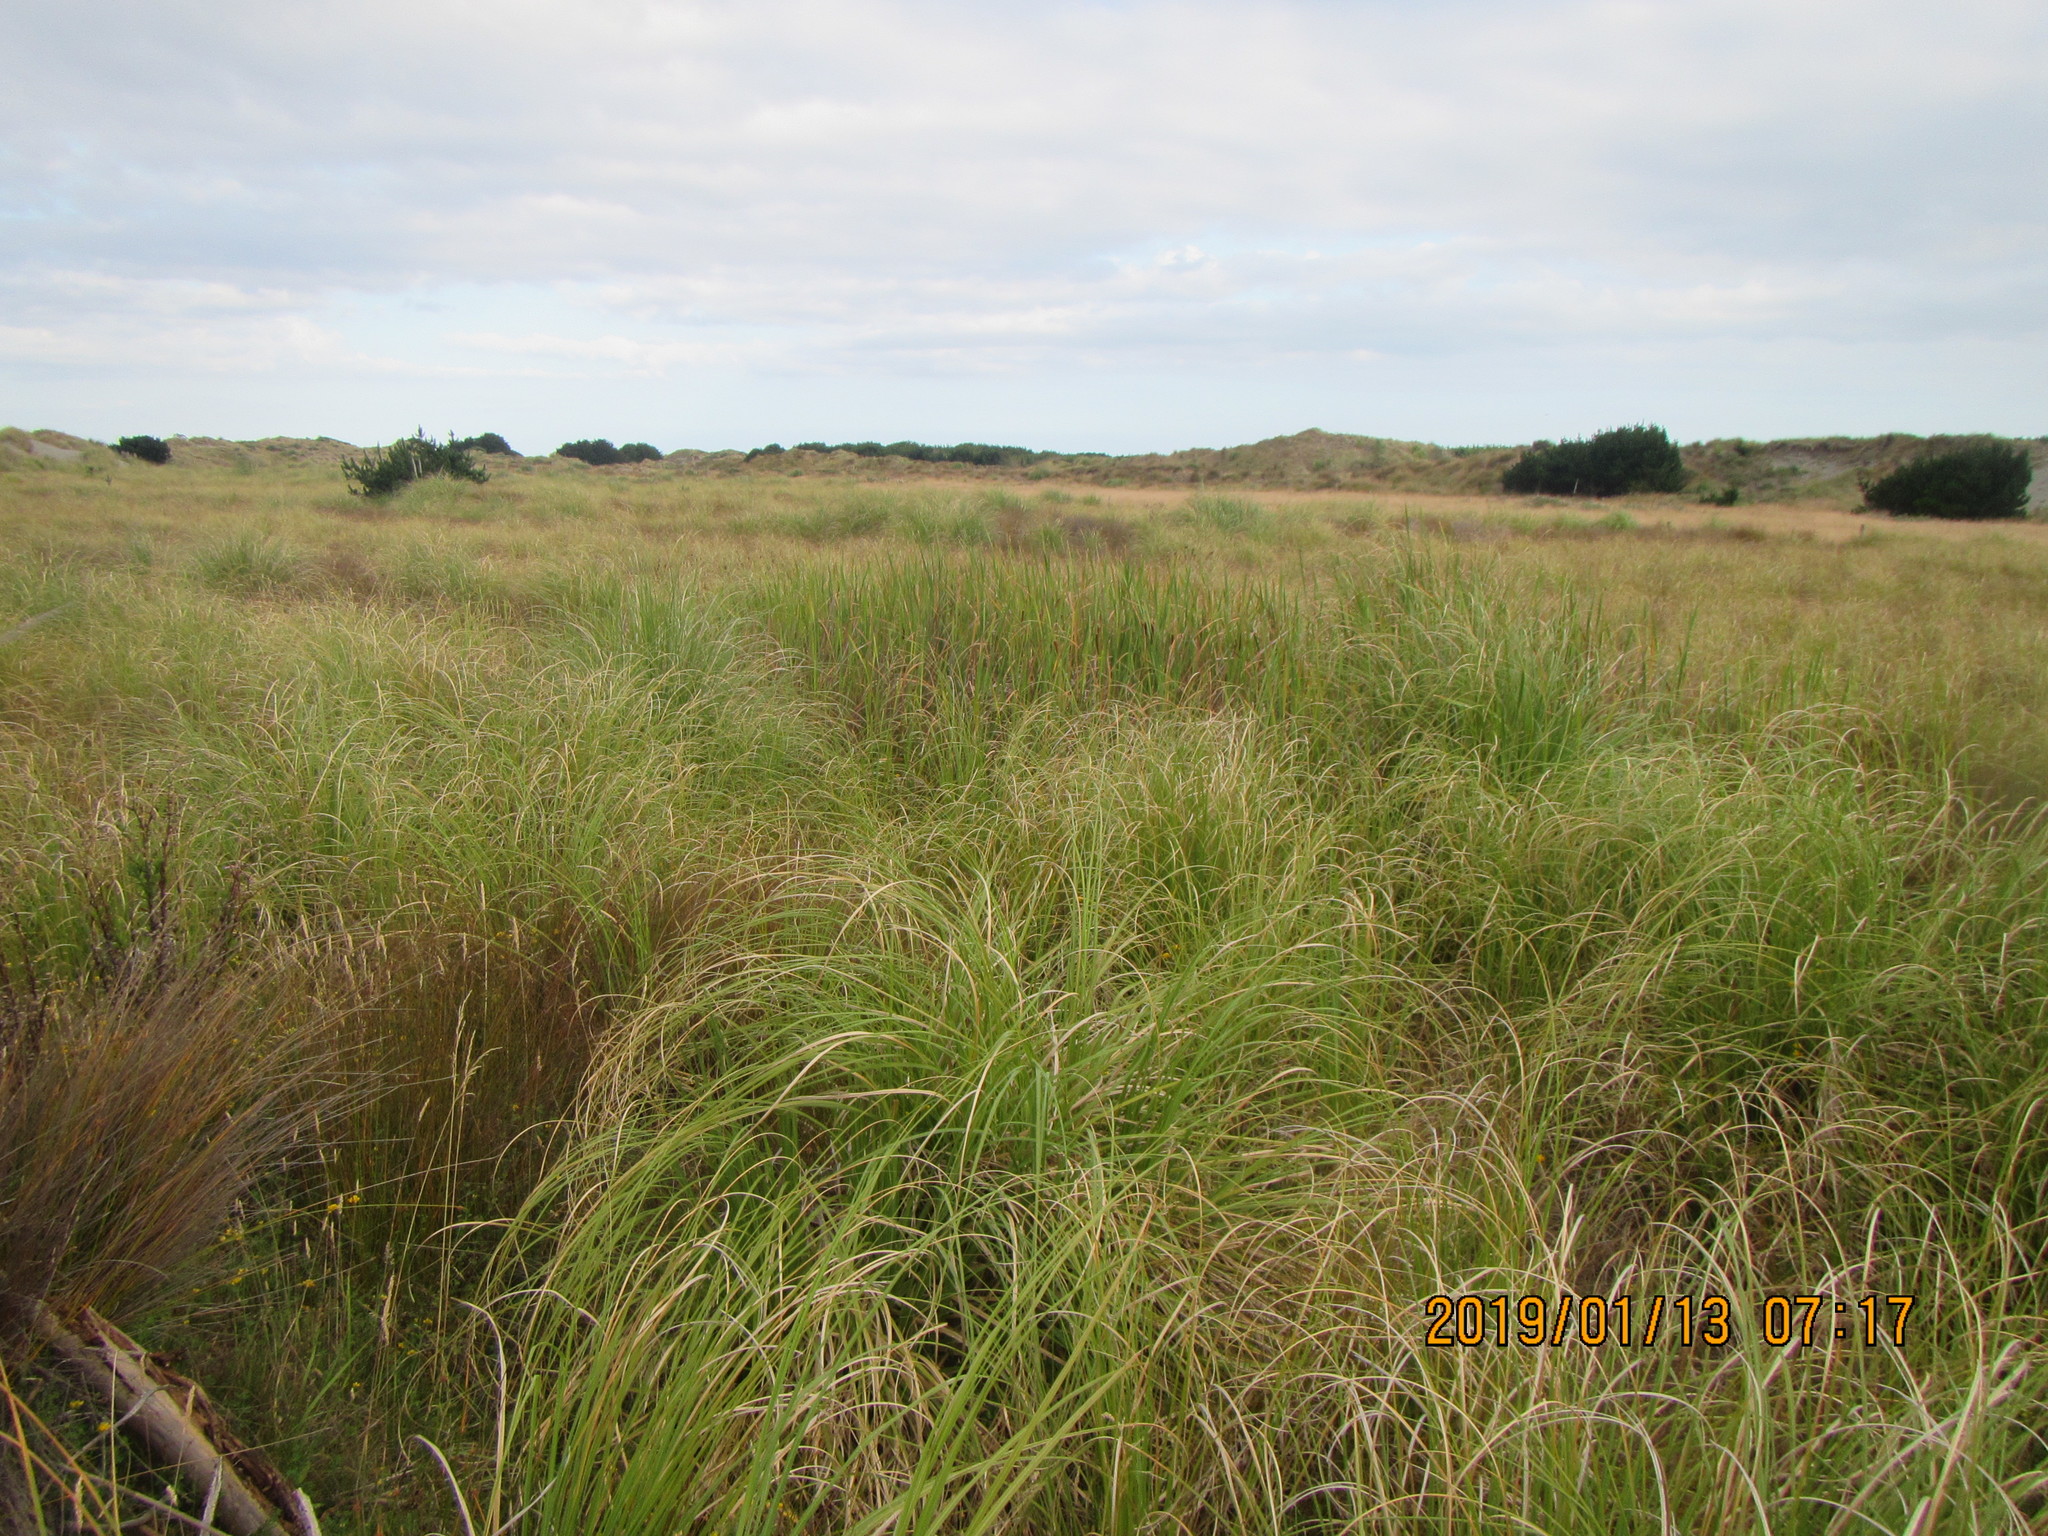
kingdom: Plantae
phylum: Tracheophyta
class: Liliopsida
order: Poales
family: Typhaceae
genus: Typha
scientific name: Typha orientalis
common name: Bullrush
